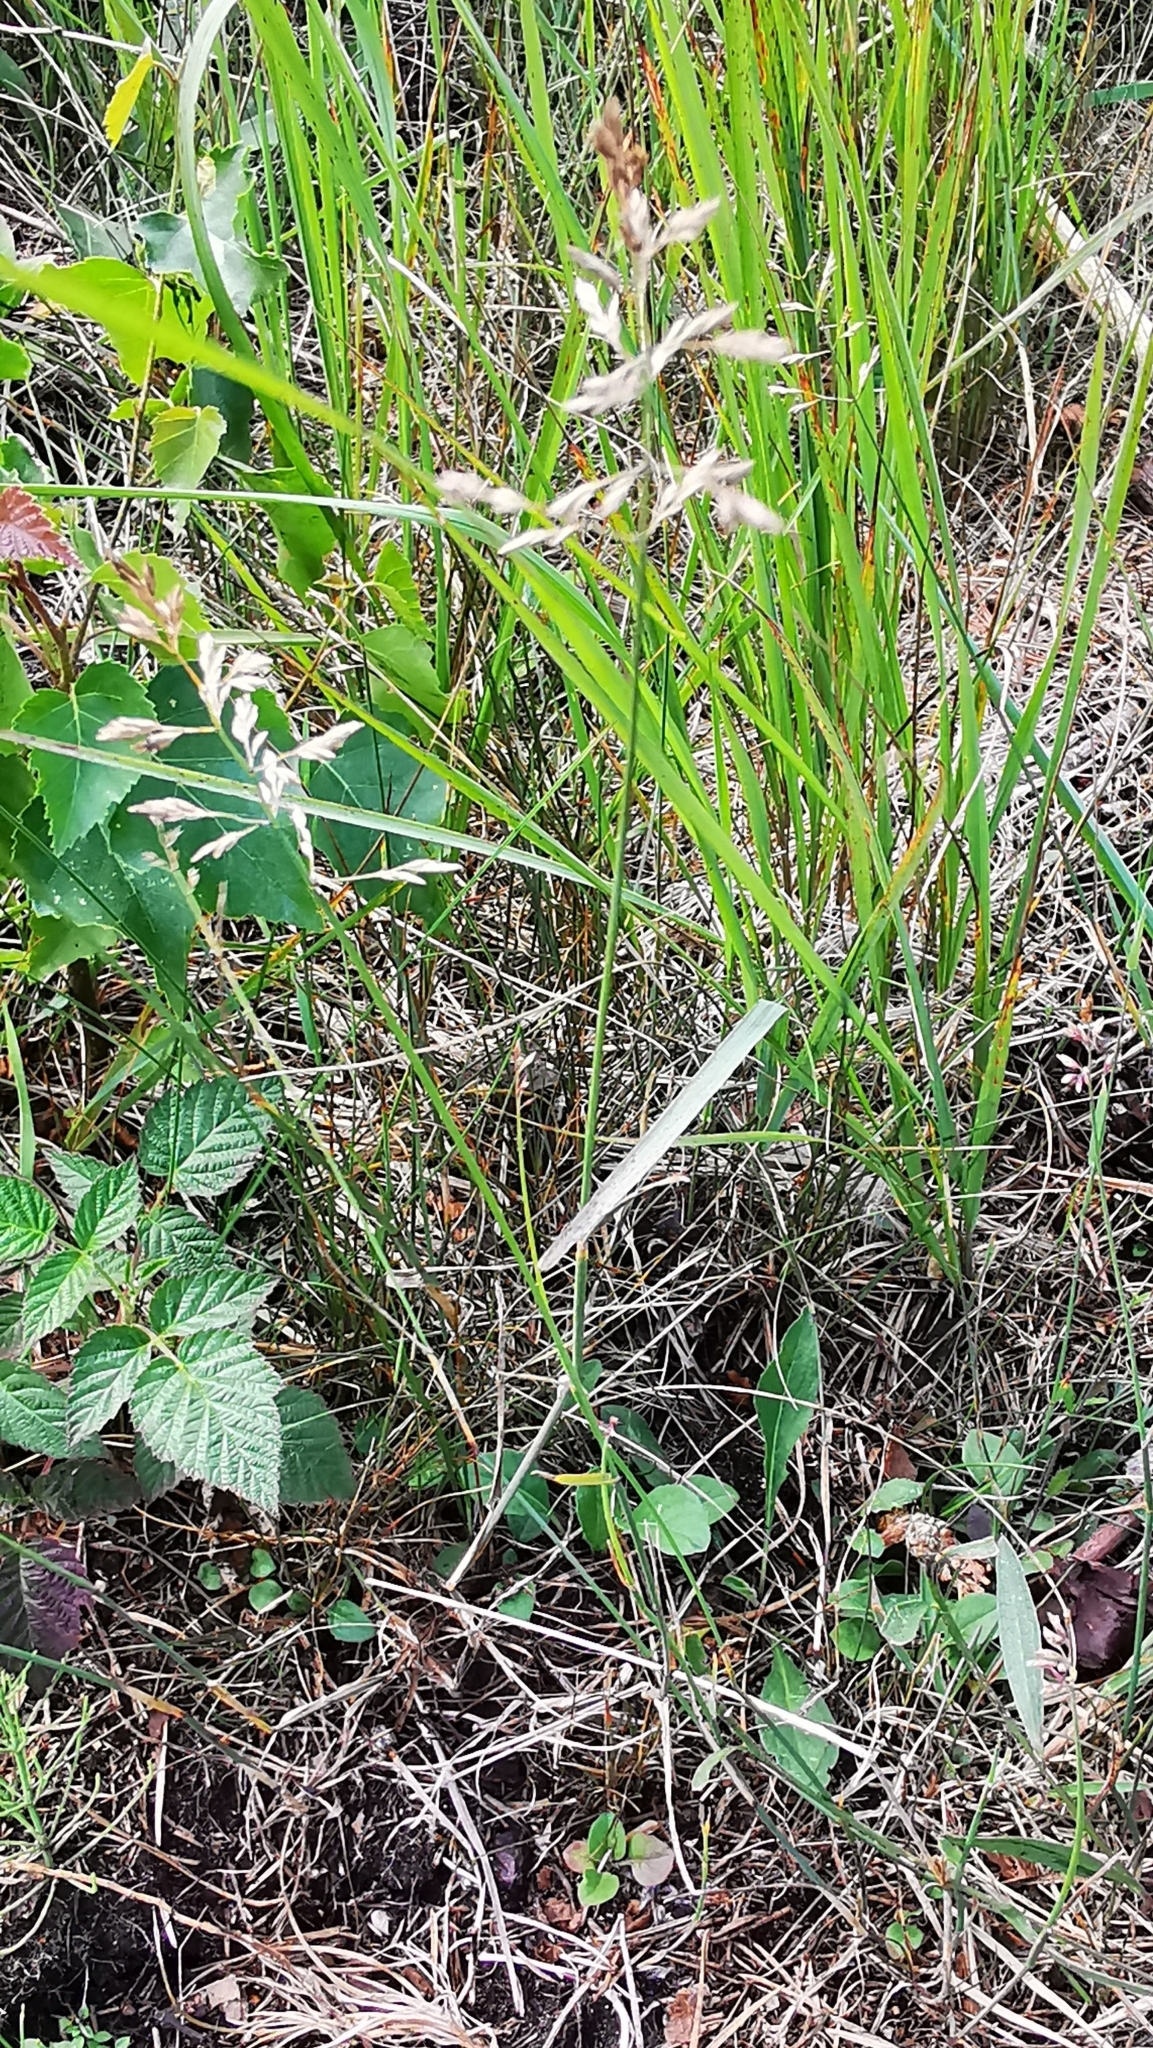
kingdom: Plantae
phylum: Tracheophyta
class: Liliopsida
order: Poales
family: Poaceae
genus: Poa
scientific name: Poa compressa
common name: Canada bluegrass
